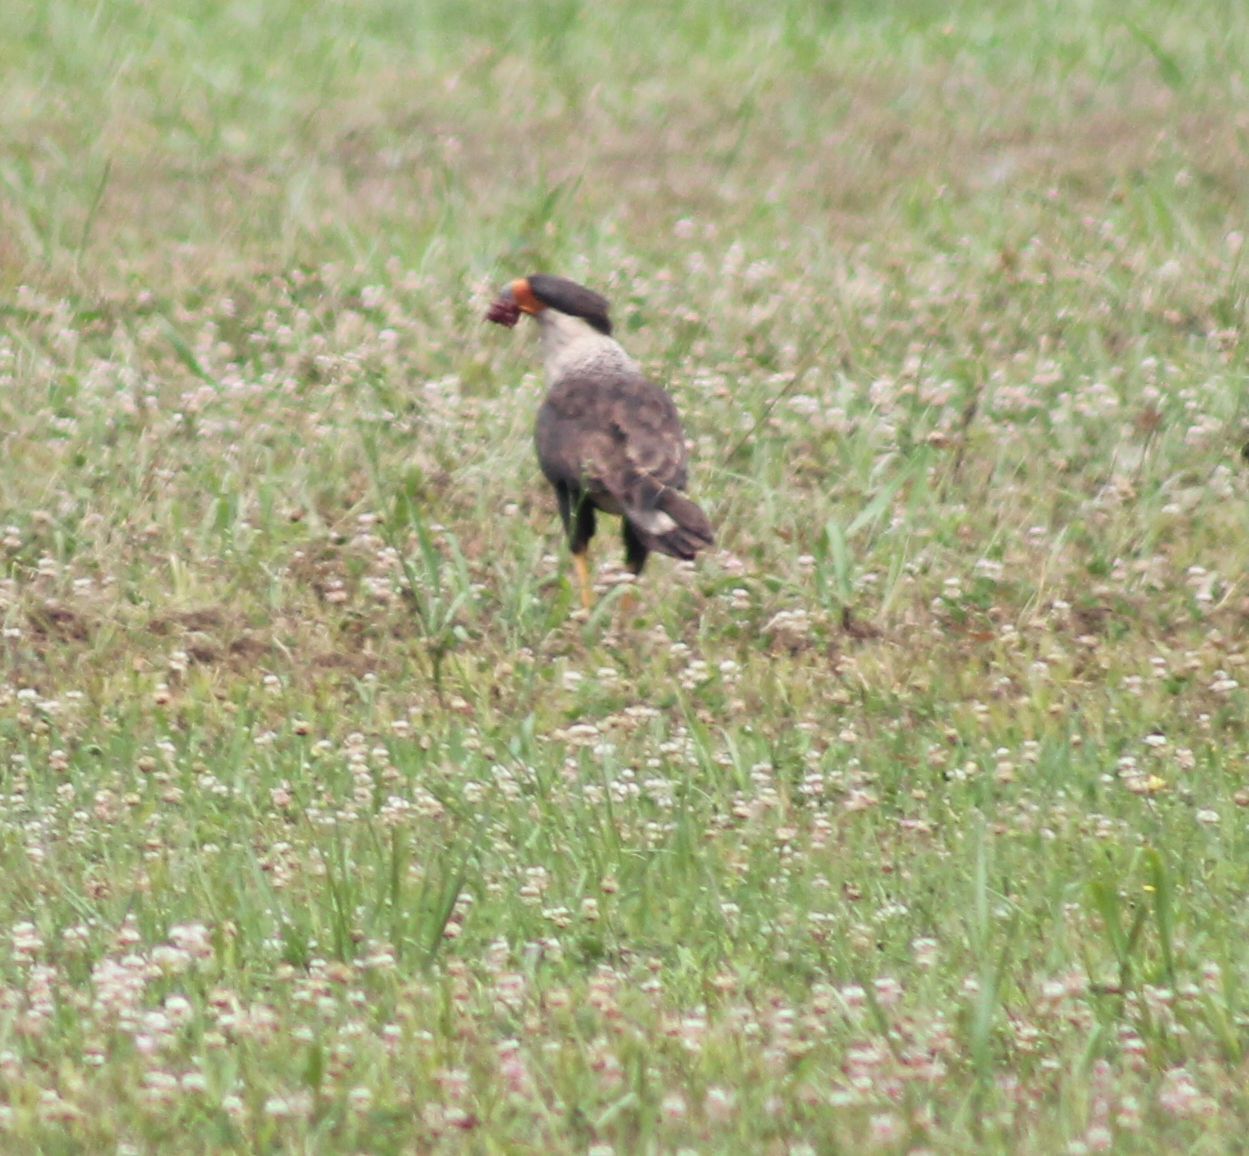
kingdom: Animalia
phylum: Chordata
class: Aves
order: Falconiformes
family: Falconidae
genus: Caracara
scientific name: Caracara plancus
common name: Southern caracara
